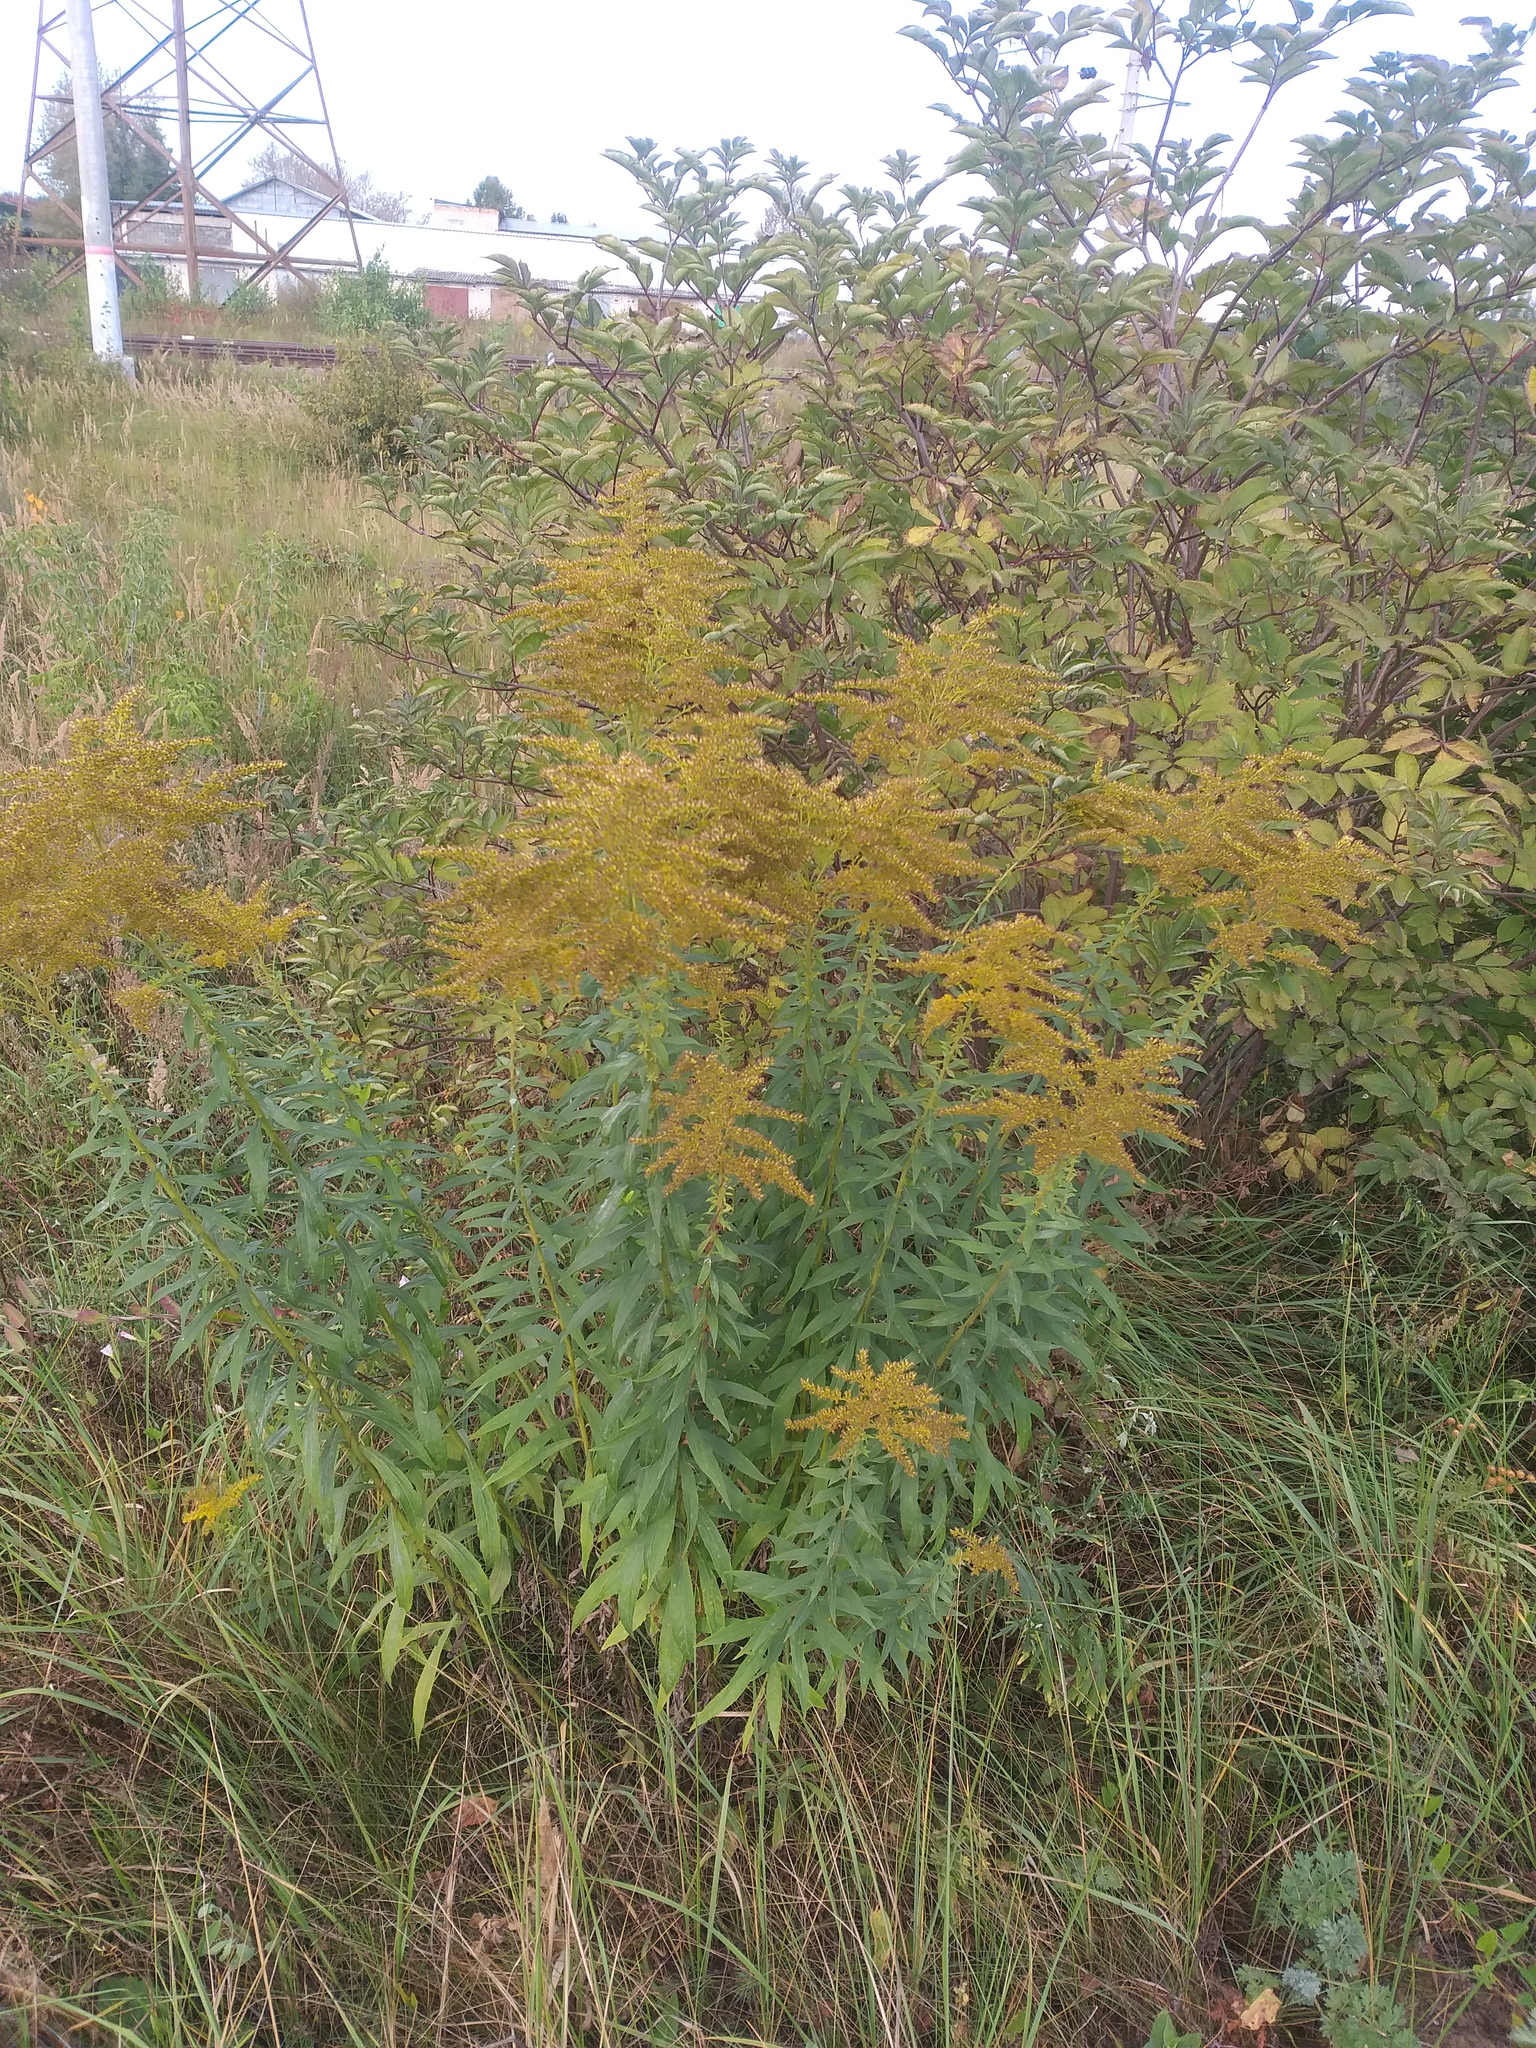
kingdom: Plantae
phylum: Tracheophyta
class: Magnoliopsida
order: Asterales
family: Asteraceae
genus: Solidago
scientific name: Solidago canadensis
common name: Canada goldenrod
